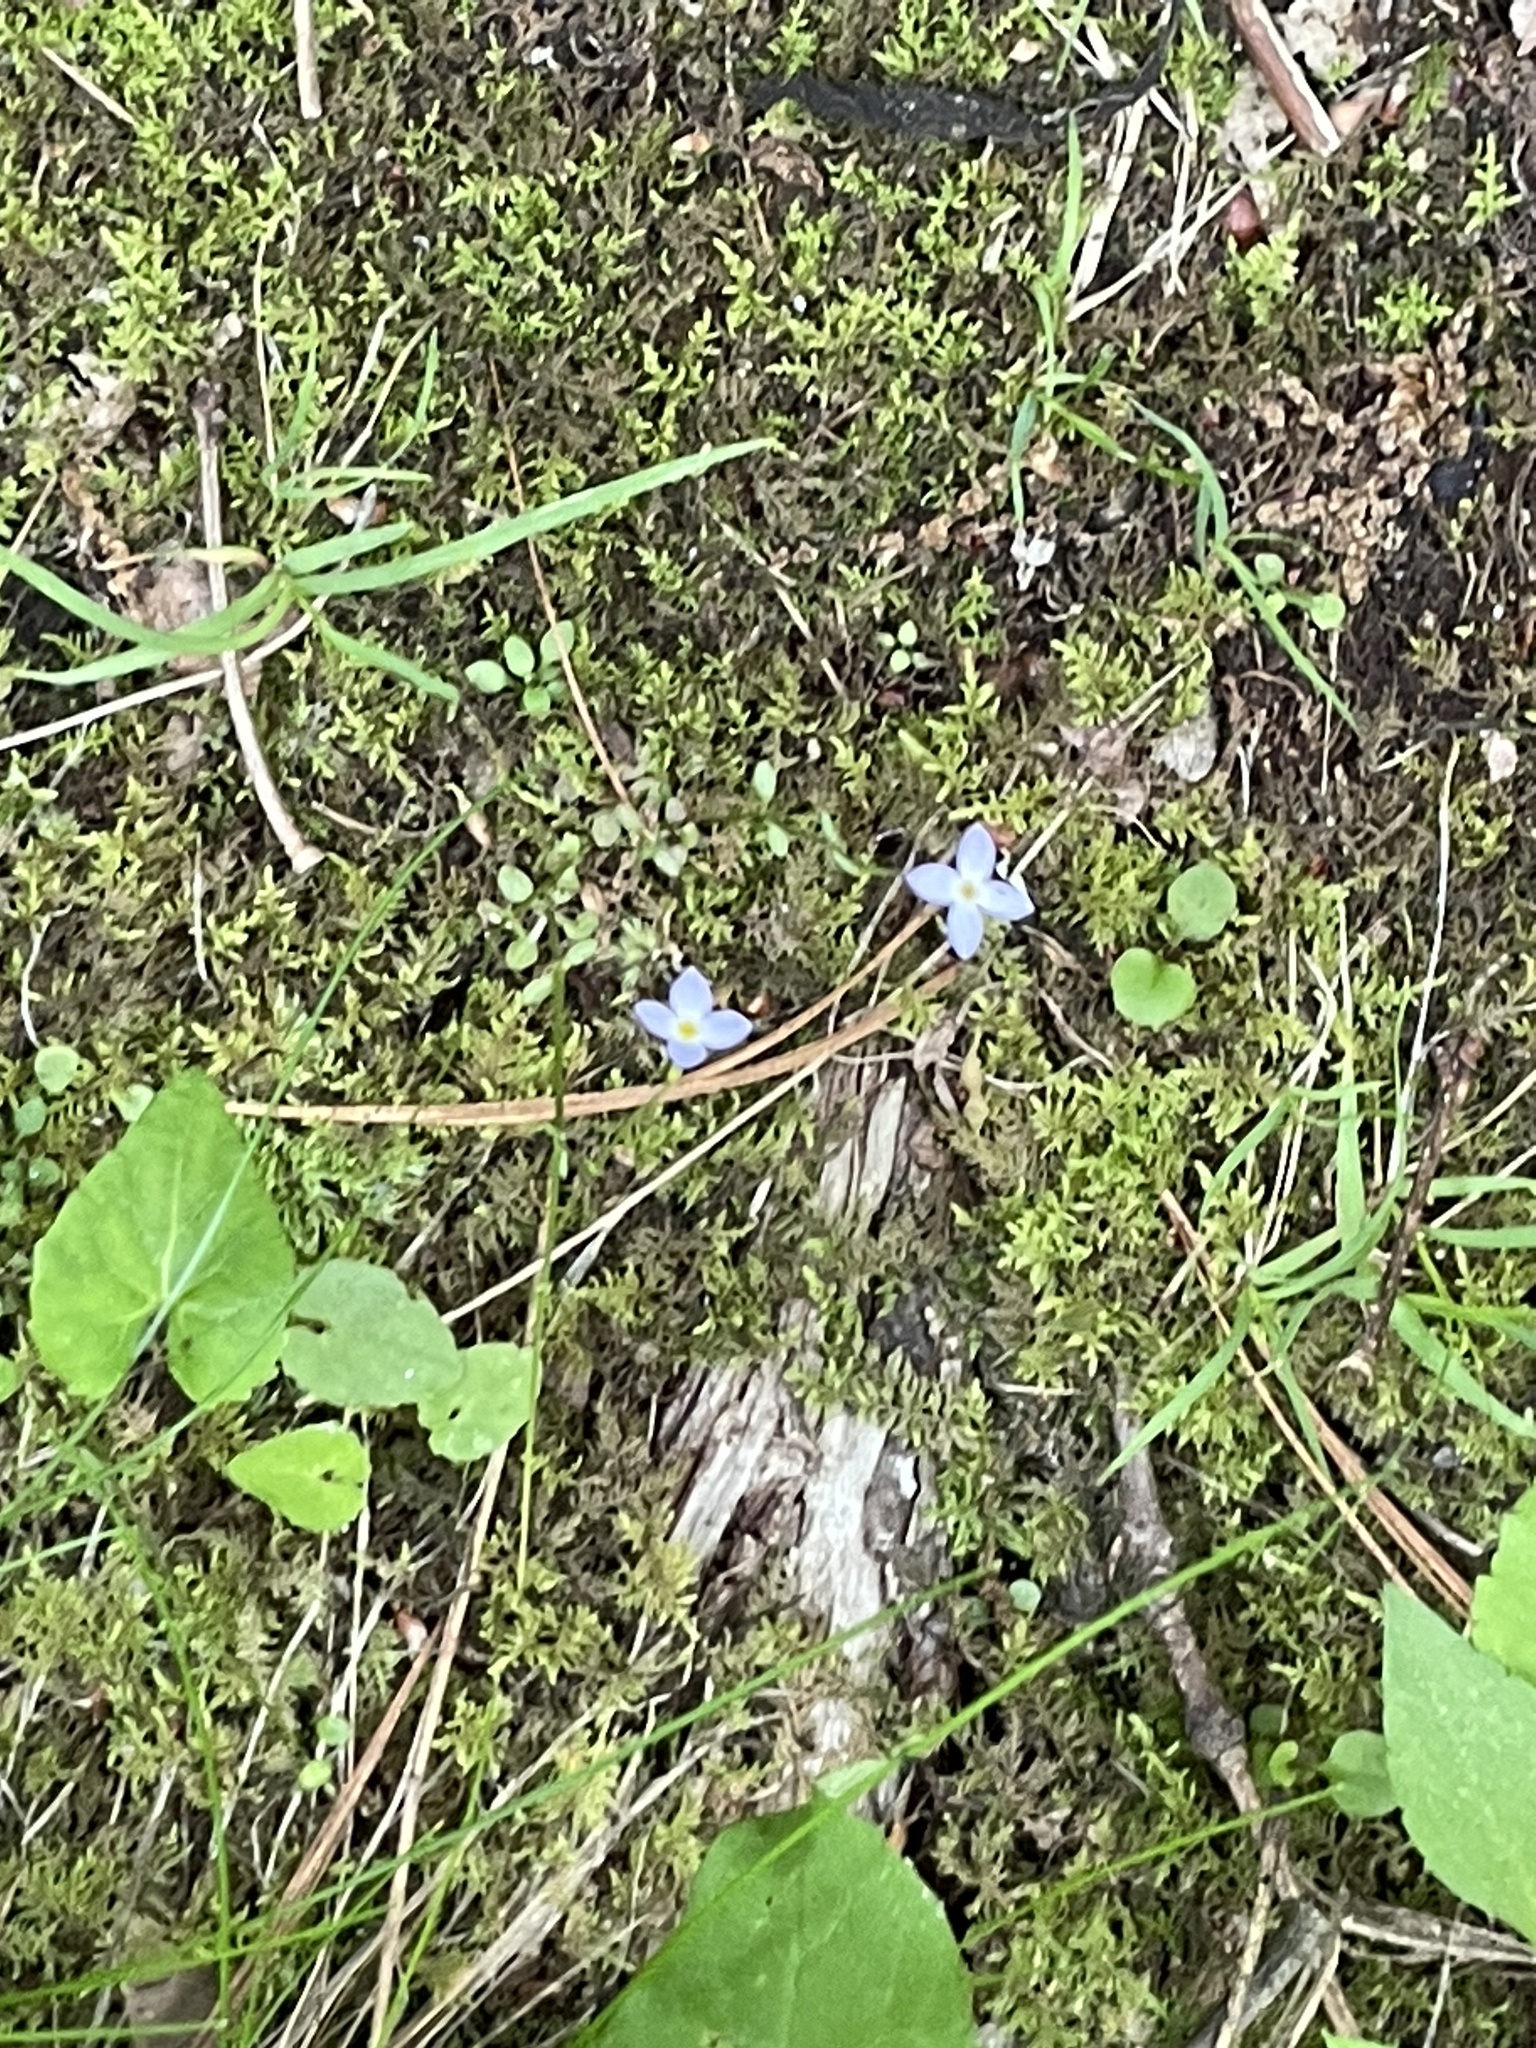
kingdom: Plantae
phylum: Tracheophyta
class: Magnoliopsida
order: Gentianales
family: Rubiaceae
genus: Houstonia
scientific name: Houstonia caerulea
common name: Bluets
